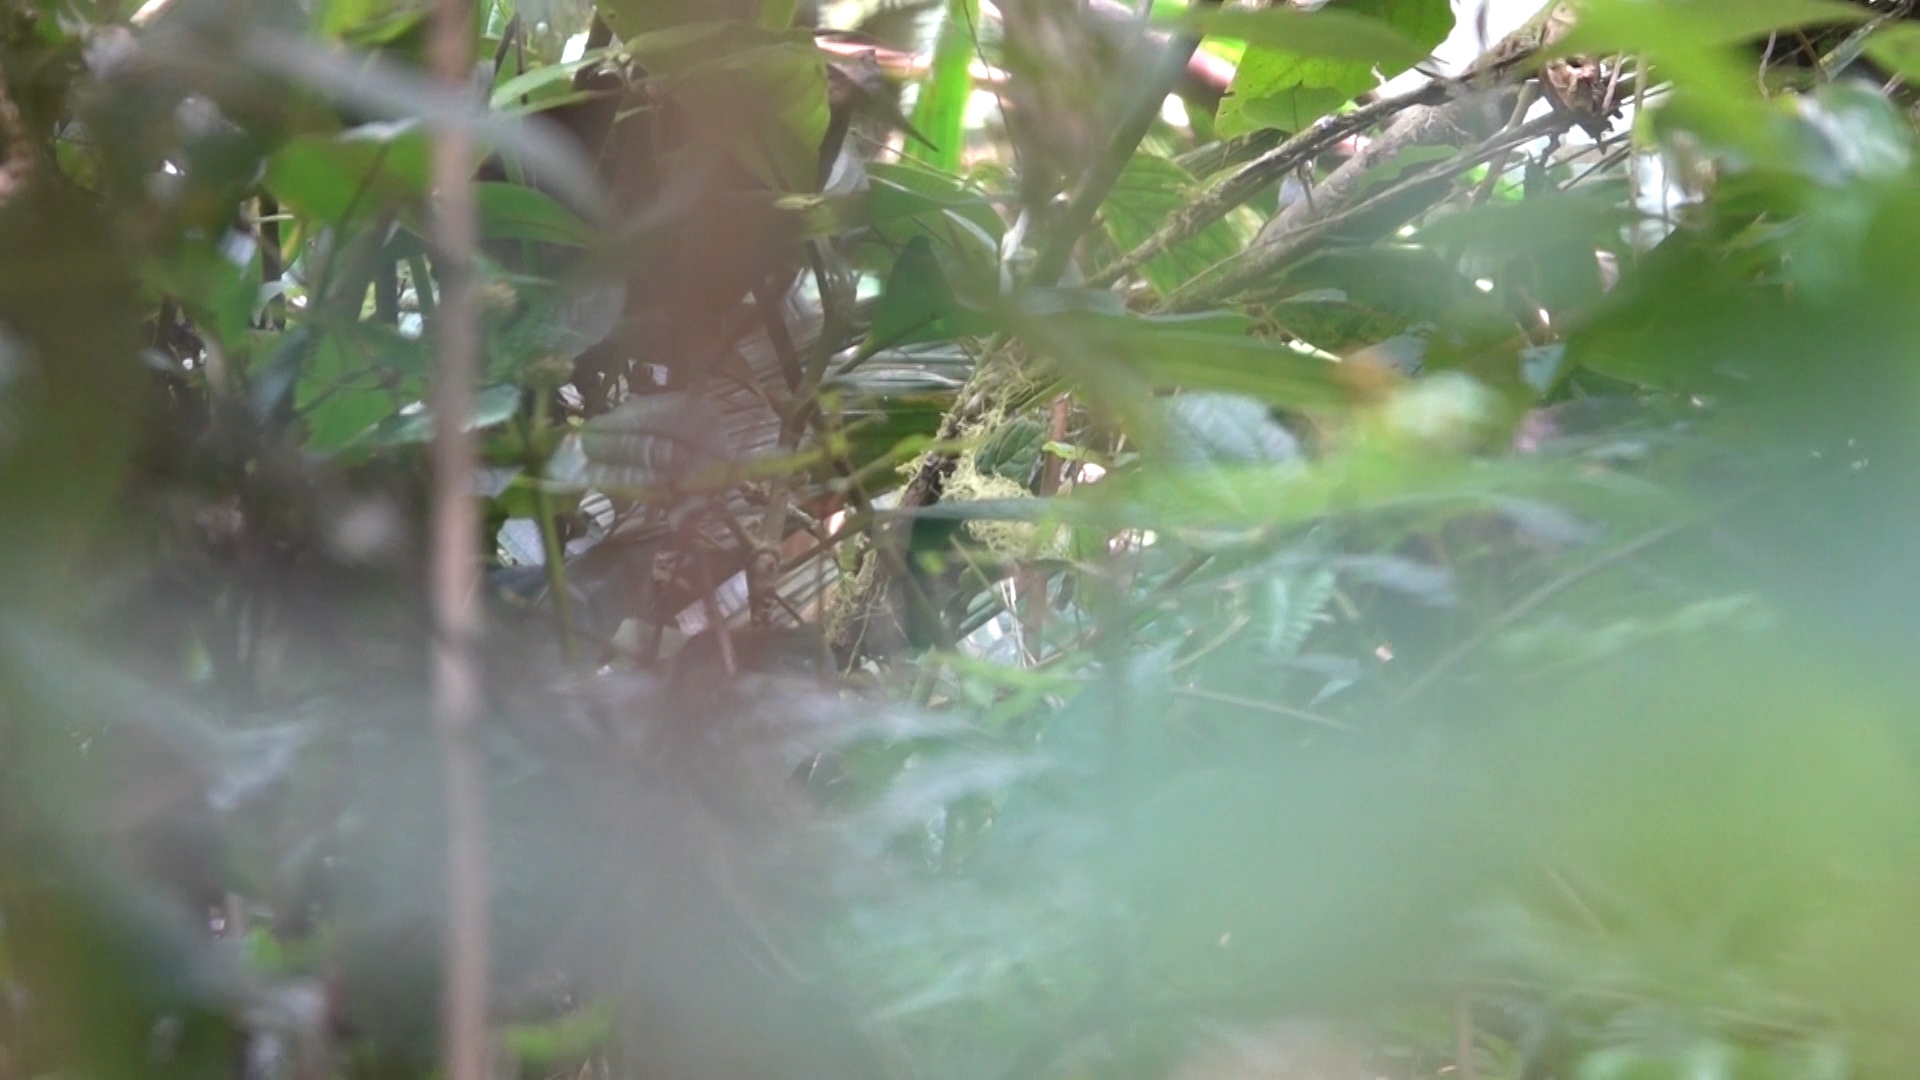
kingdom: Animalia
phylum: Chordata
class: Mammalia
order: Carnivora
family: Ursidae
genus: Tremarctos
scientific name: Tremarctos ornatus
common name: Spectacled bear
